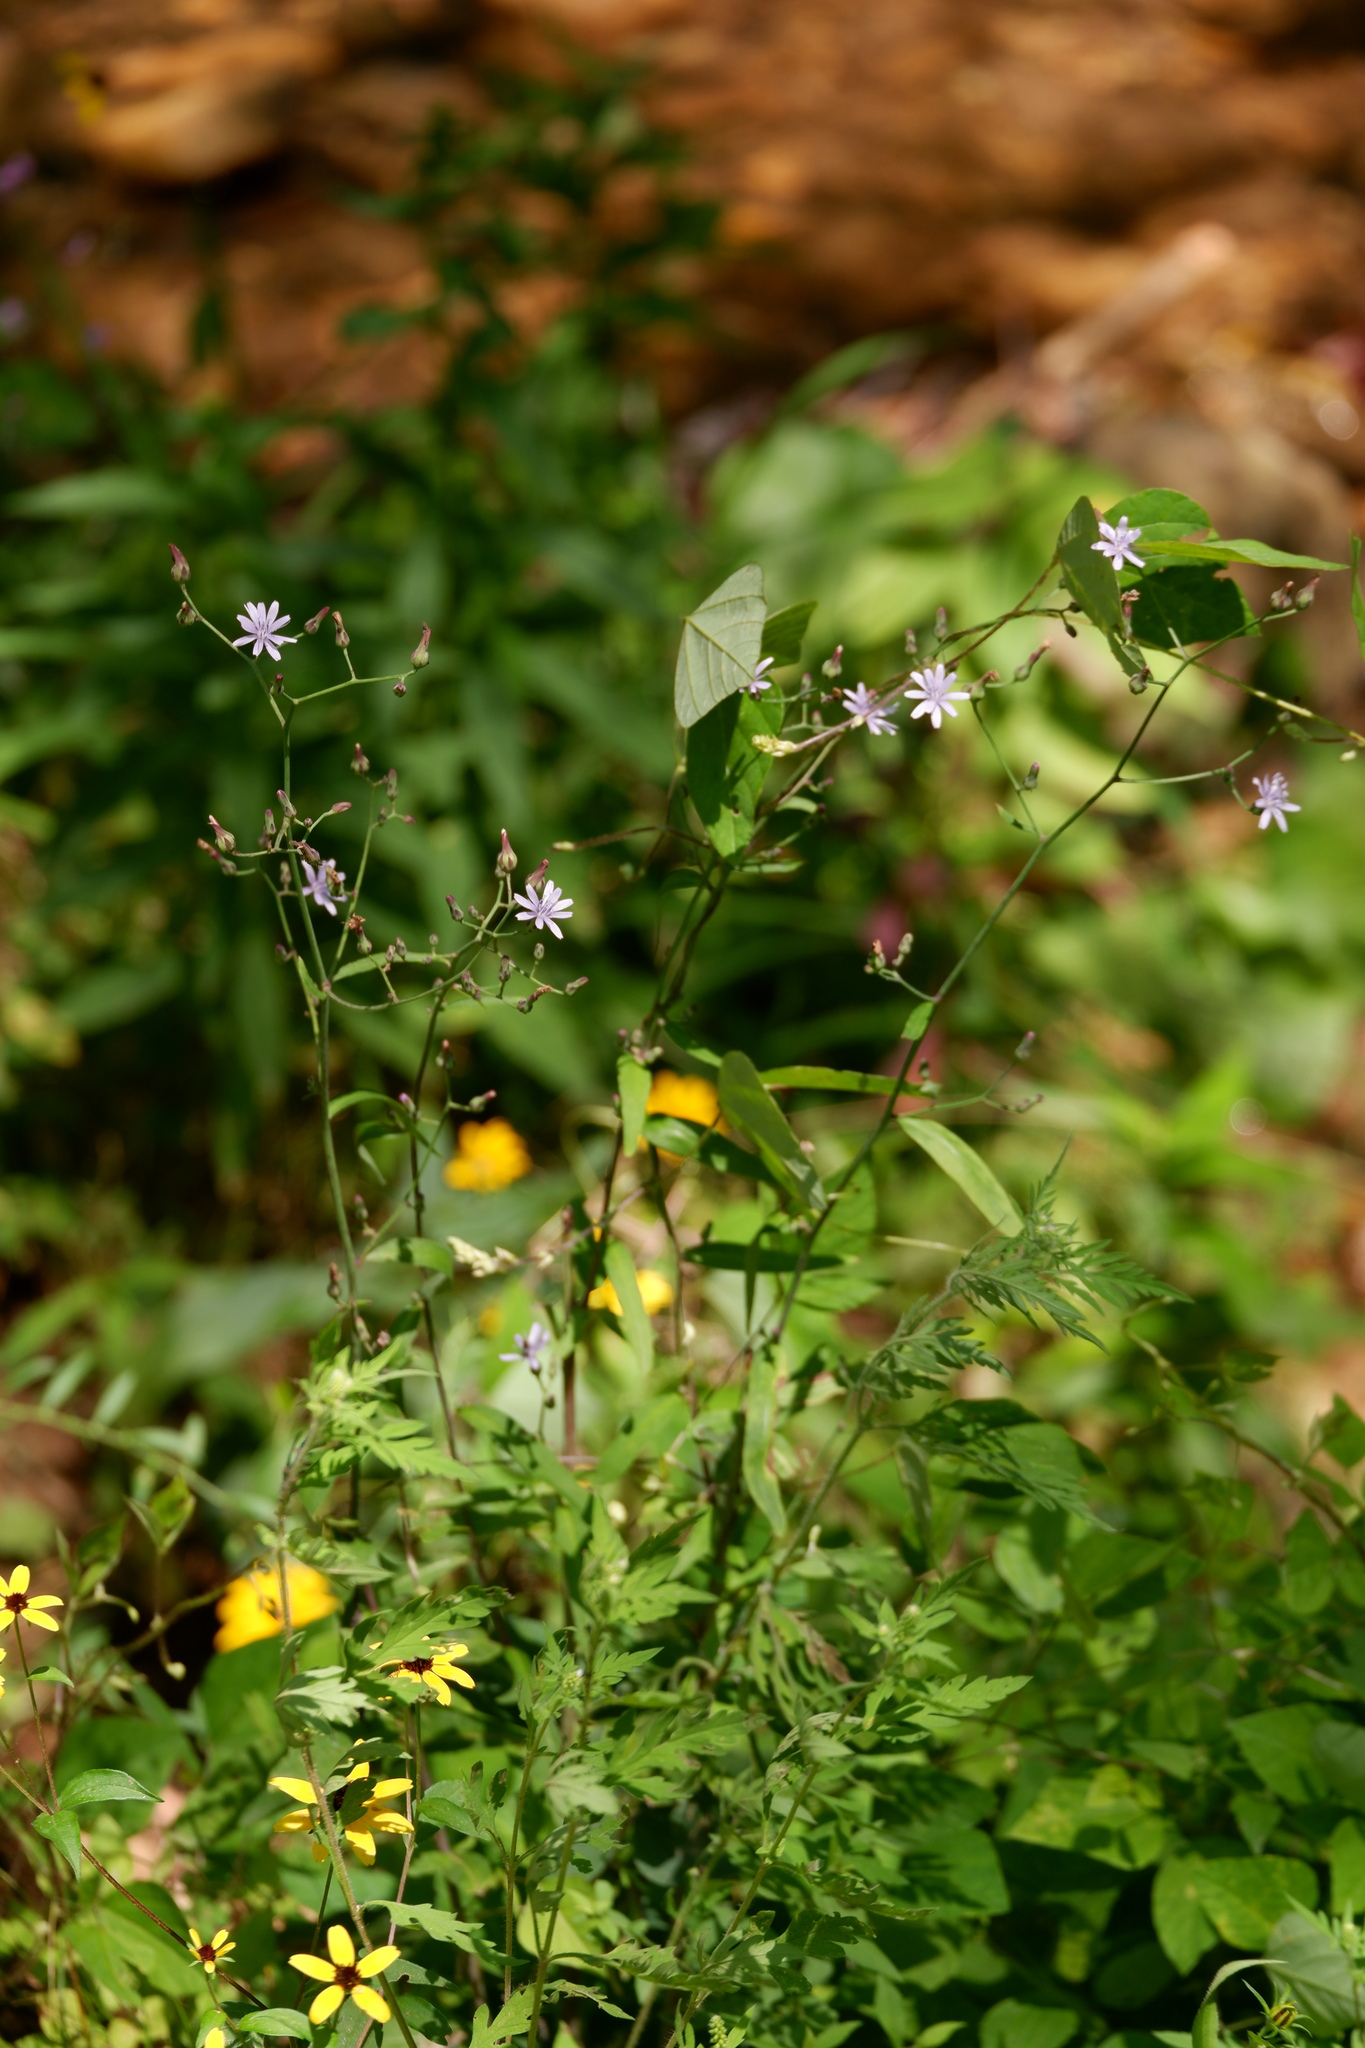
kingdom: Plantae
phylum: Tracheophyta
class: Magnoliopsida
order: Asterales
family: Asteraceae
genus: Lactuca
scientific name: Lactuca floridana
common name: Woodland lettuce
